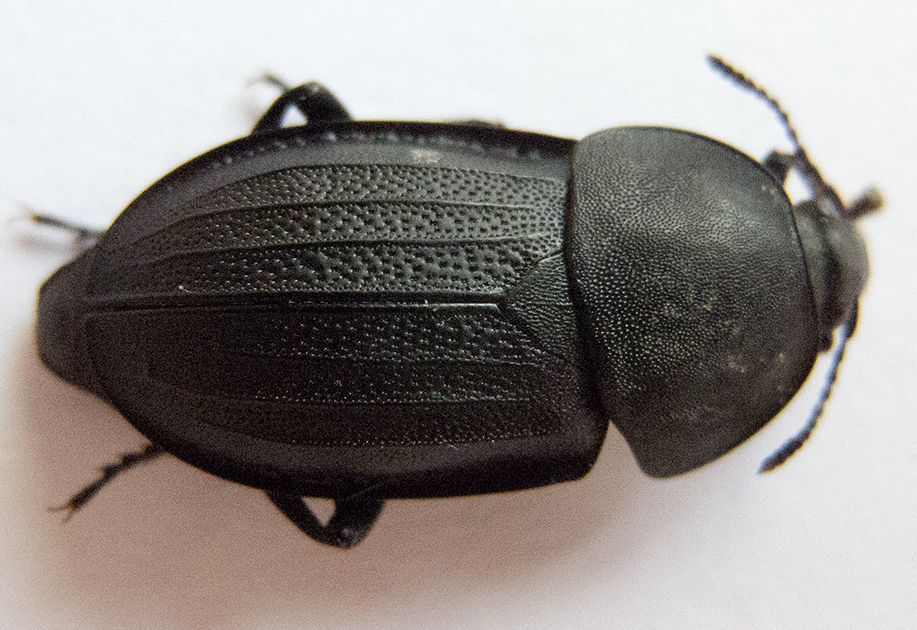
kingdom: Animalia
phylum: Arthropoda
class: Insecta
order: Coleoptera
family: Staphylinidae
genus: Silpha
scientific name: Silpha obscura
